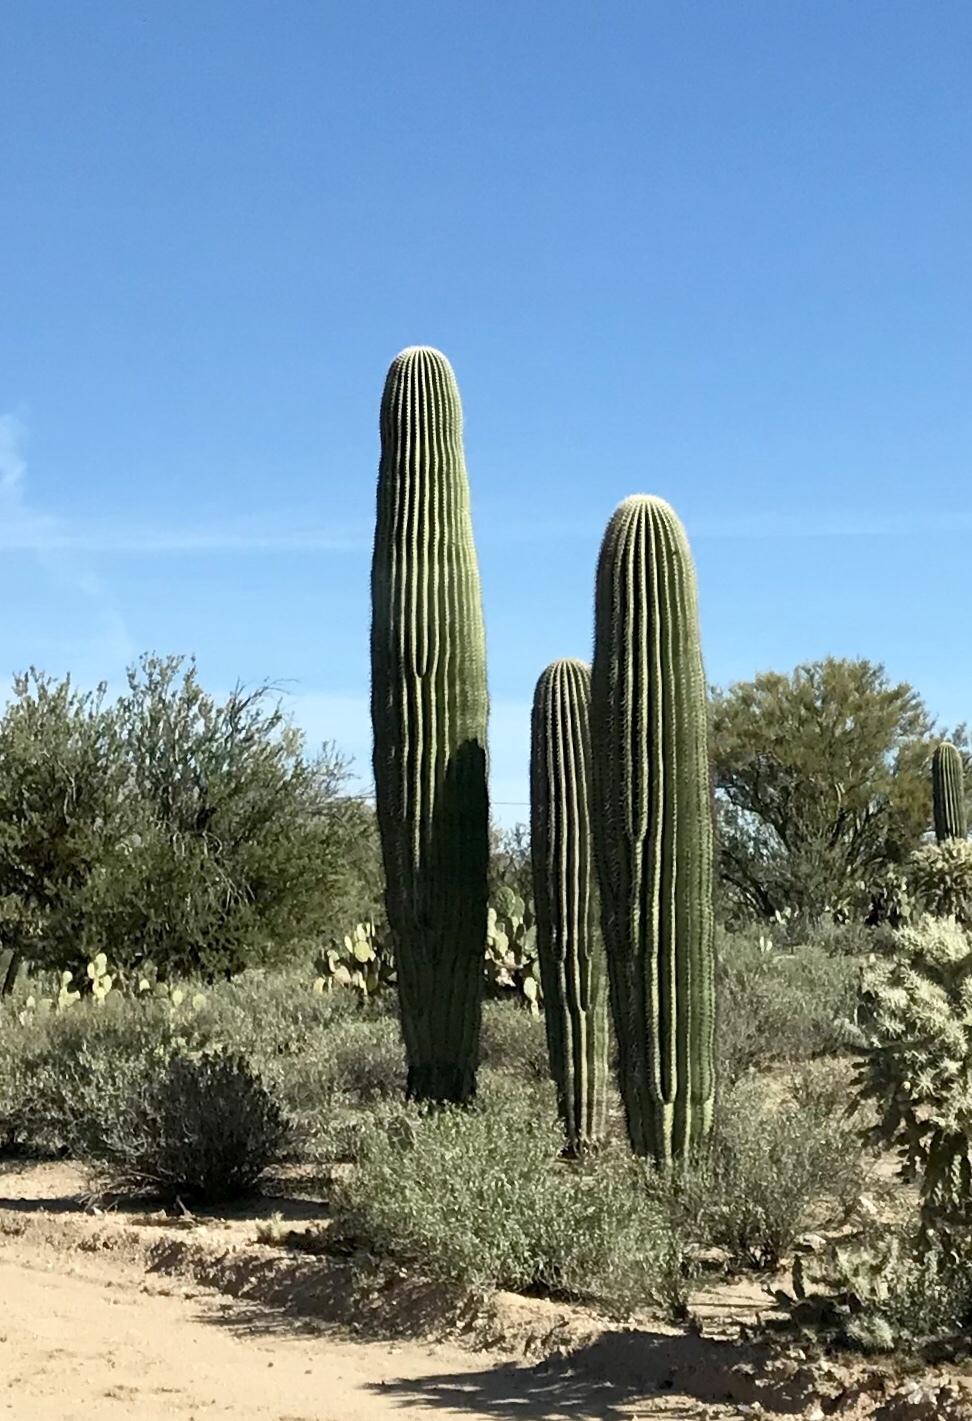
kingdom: Plantae
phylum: Tracheophyta
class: Magnoliopsida
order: Caryophyllales
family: Cactaceae
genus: Carnegiea
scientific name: Carnegiea gigantea
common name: Saguaro
